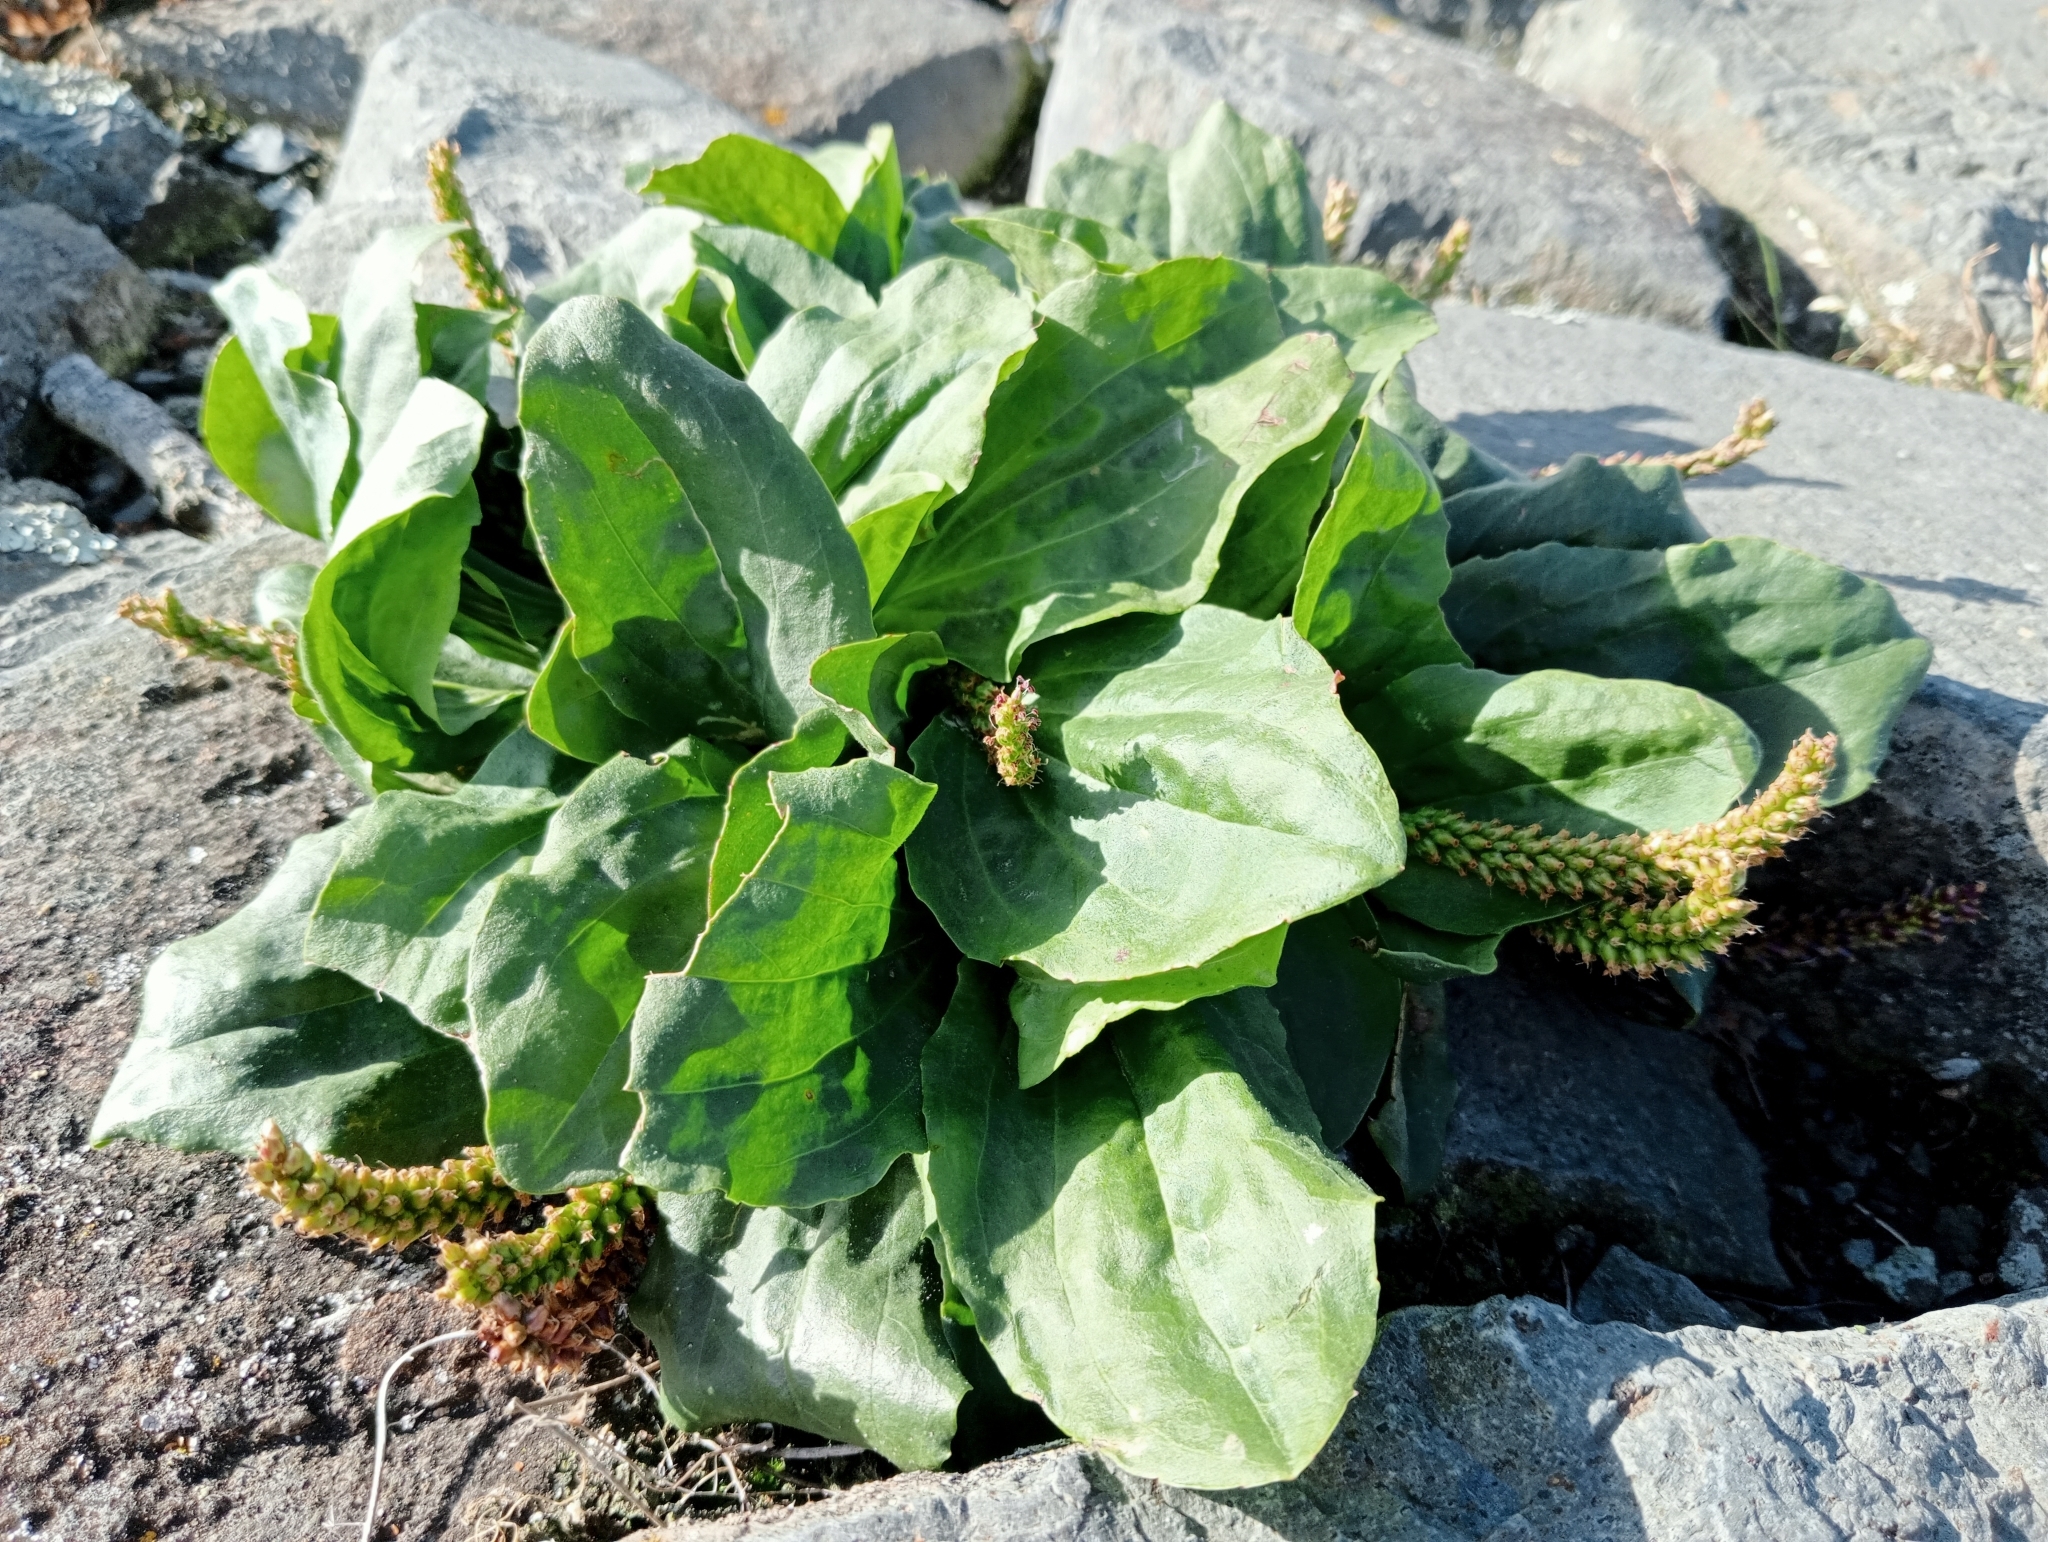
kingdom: Plantae
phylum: Tracheophyta
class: Magnoliopsida
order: Lamiales
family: Plantaginaceae
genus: Plantago
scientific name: Plantago major
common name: Common plantain
